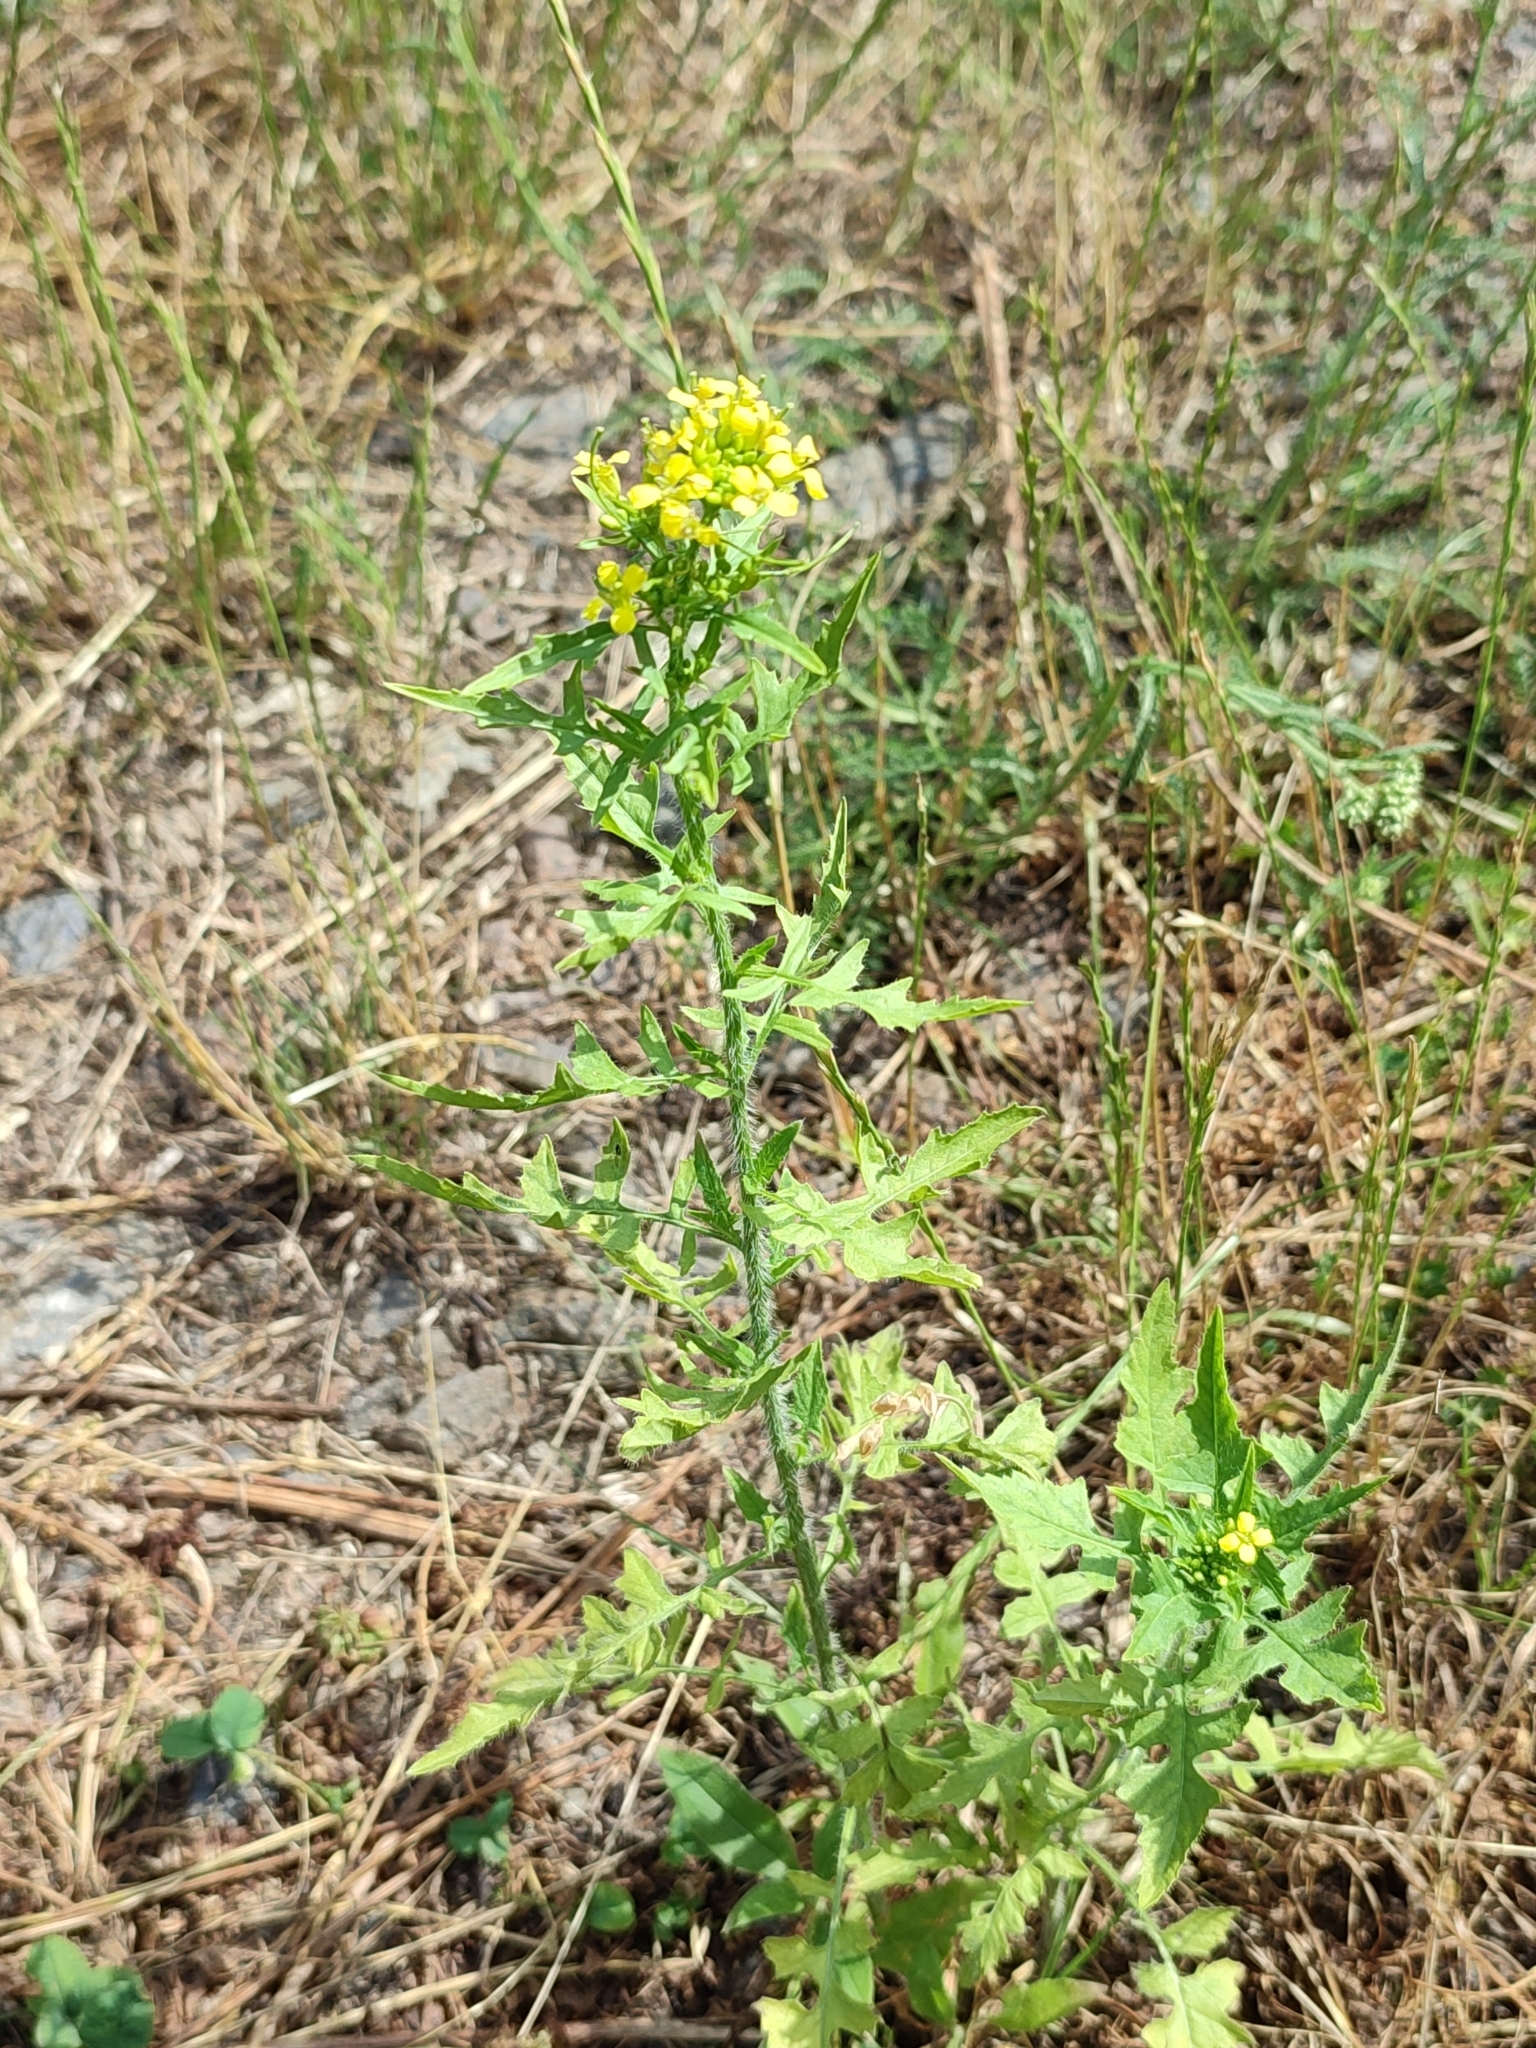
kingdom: Plantae
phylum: Tracheophyta
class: Magnoliopsida
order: Brassicales
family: Brassicaceae
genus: Sisymbrium
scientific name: Sisymbrium loeselii
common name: False london-rocket
